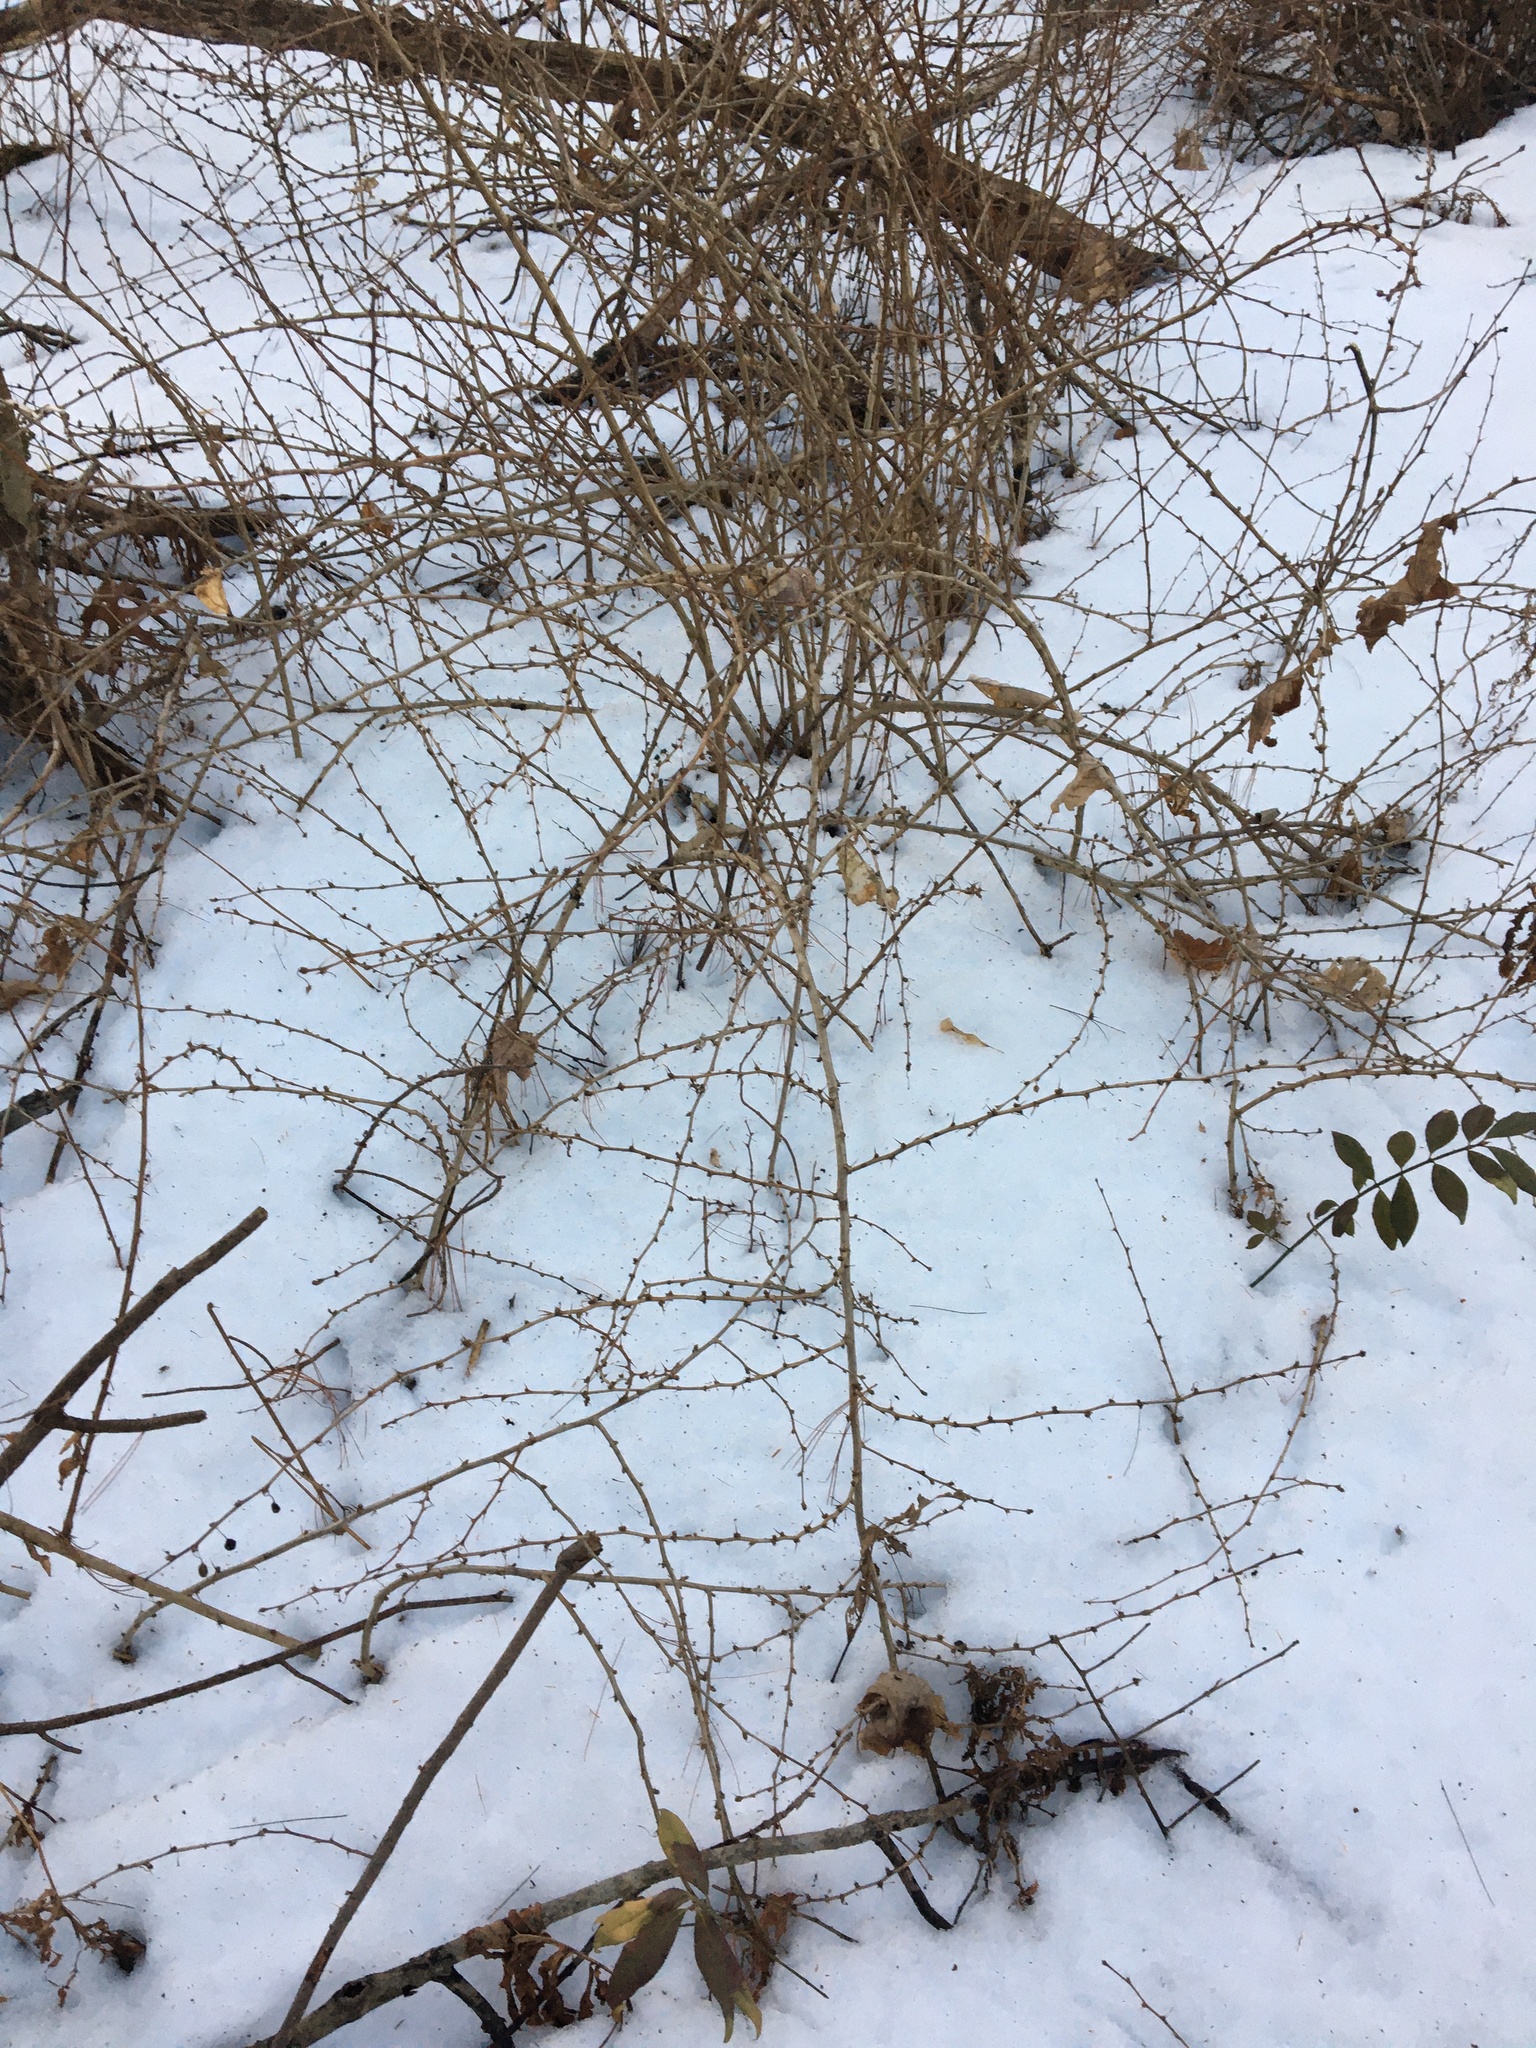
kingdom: Plantae
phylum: Tracheophyta
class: Magnoliopsida
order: Ranunculales
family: Berberidaceae
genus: Berberis
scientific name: Berberis thunbergii
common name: Japanese barberry
